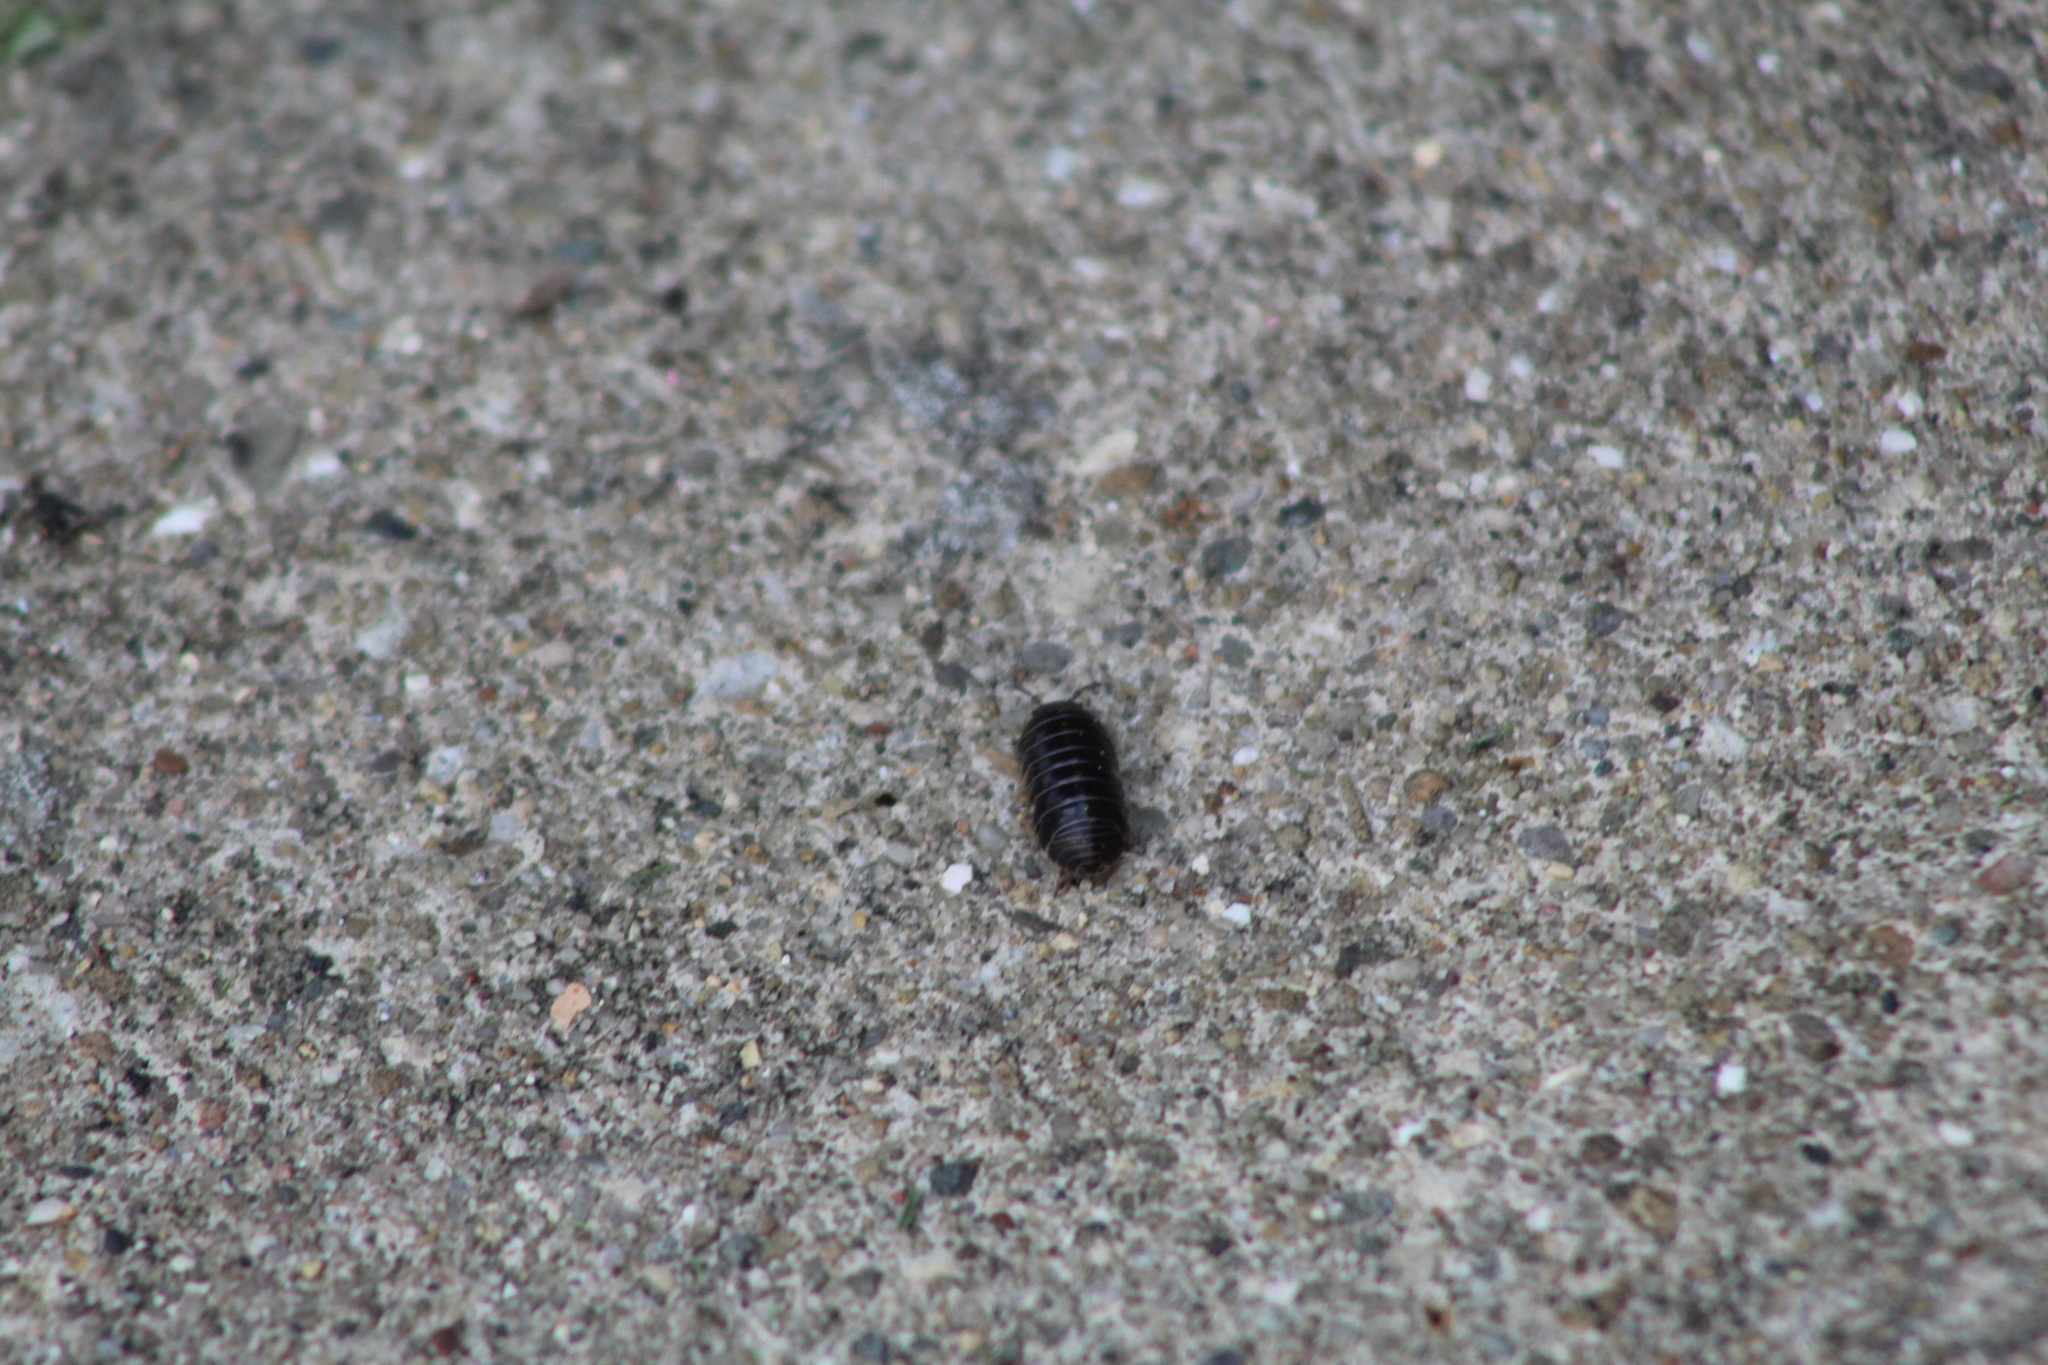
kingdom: Animalia
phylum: Arthropoda
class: Malacostraca
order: Isopoda
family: Armadillidiidae
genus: Armadillidium
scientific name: Armadillidium vulgare
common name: Common pill woodlouse
